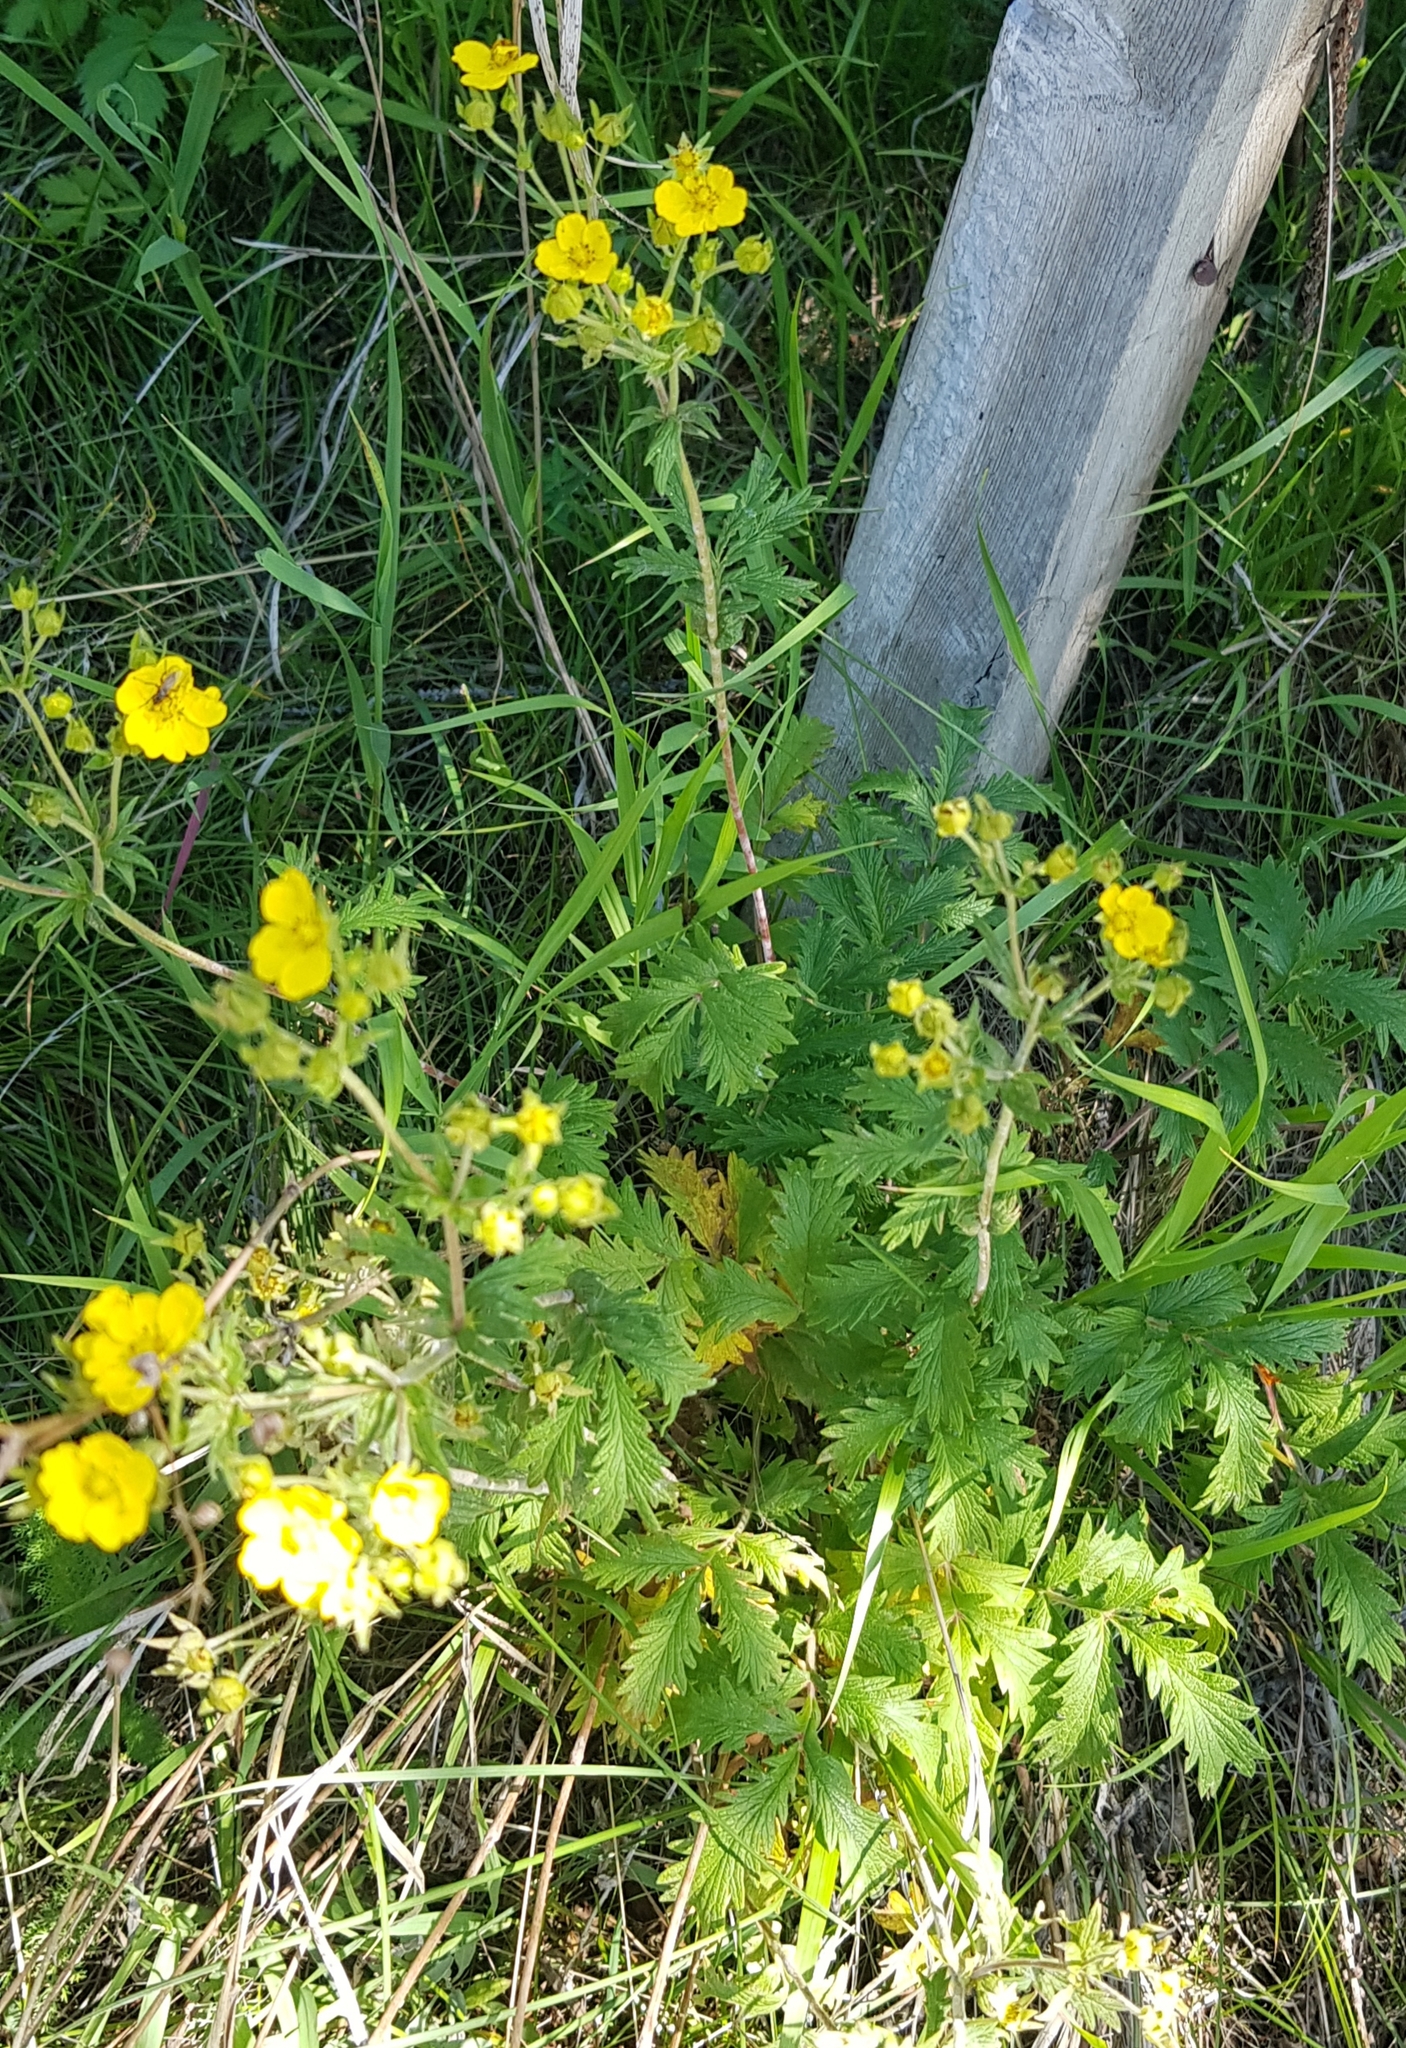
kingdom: Plantae
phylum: Tracheophyta
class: Magnoliopsida
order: Rosales
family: Rosaceae
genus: Potentilla
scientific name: Potentilla norvegica
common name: Ternate-leaved cinquefoil
